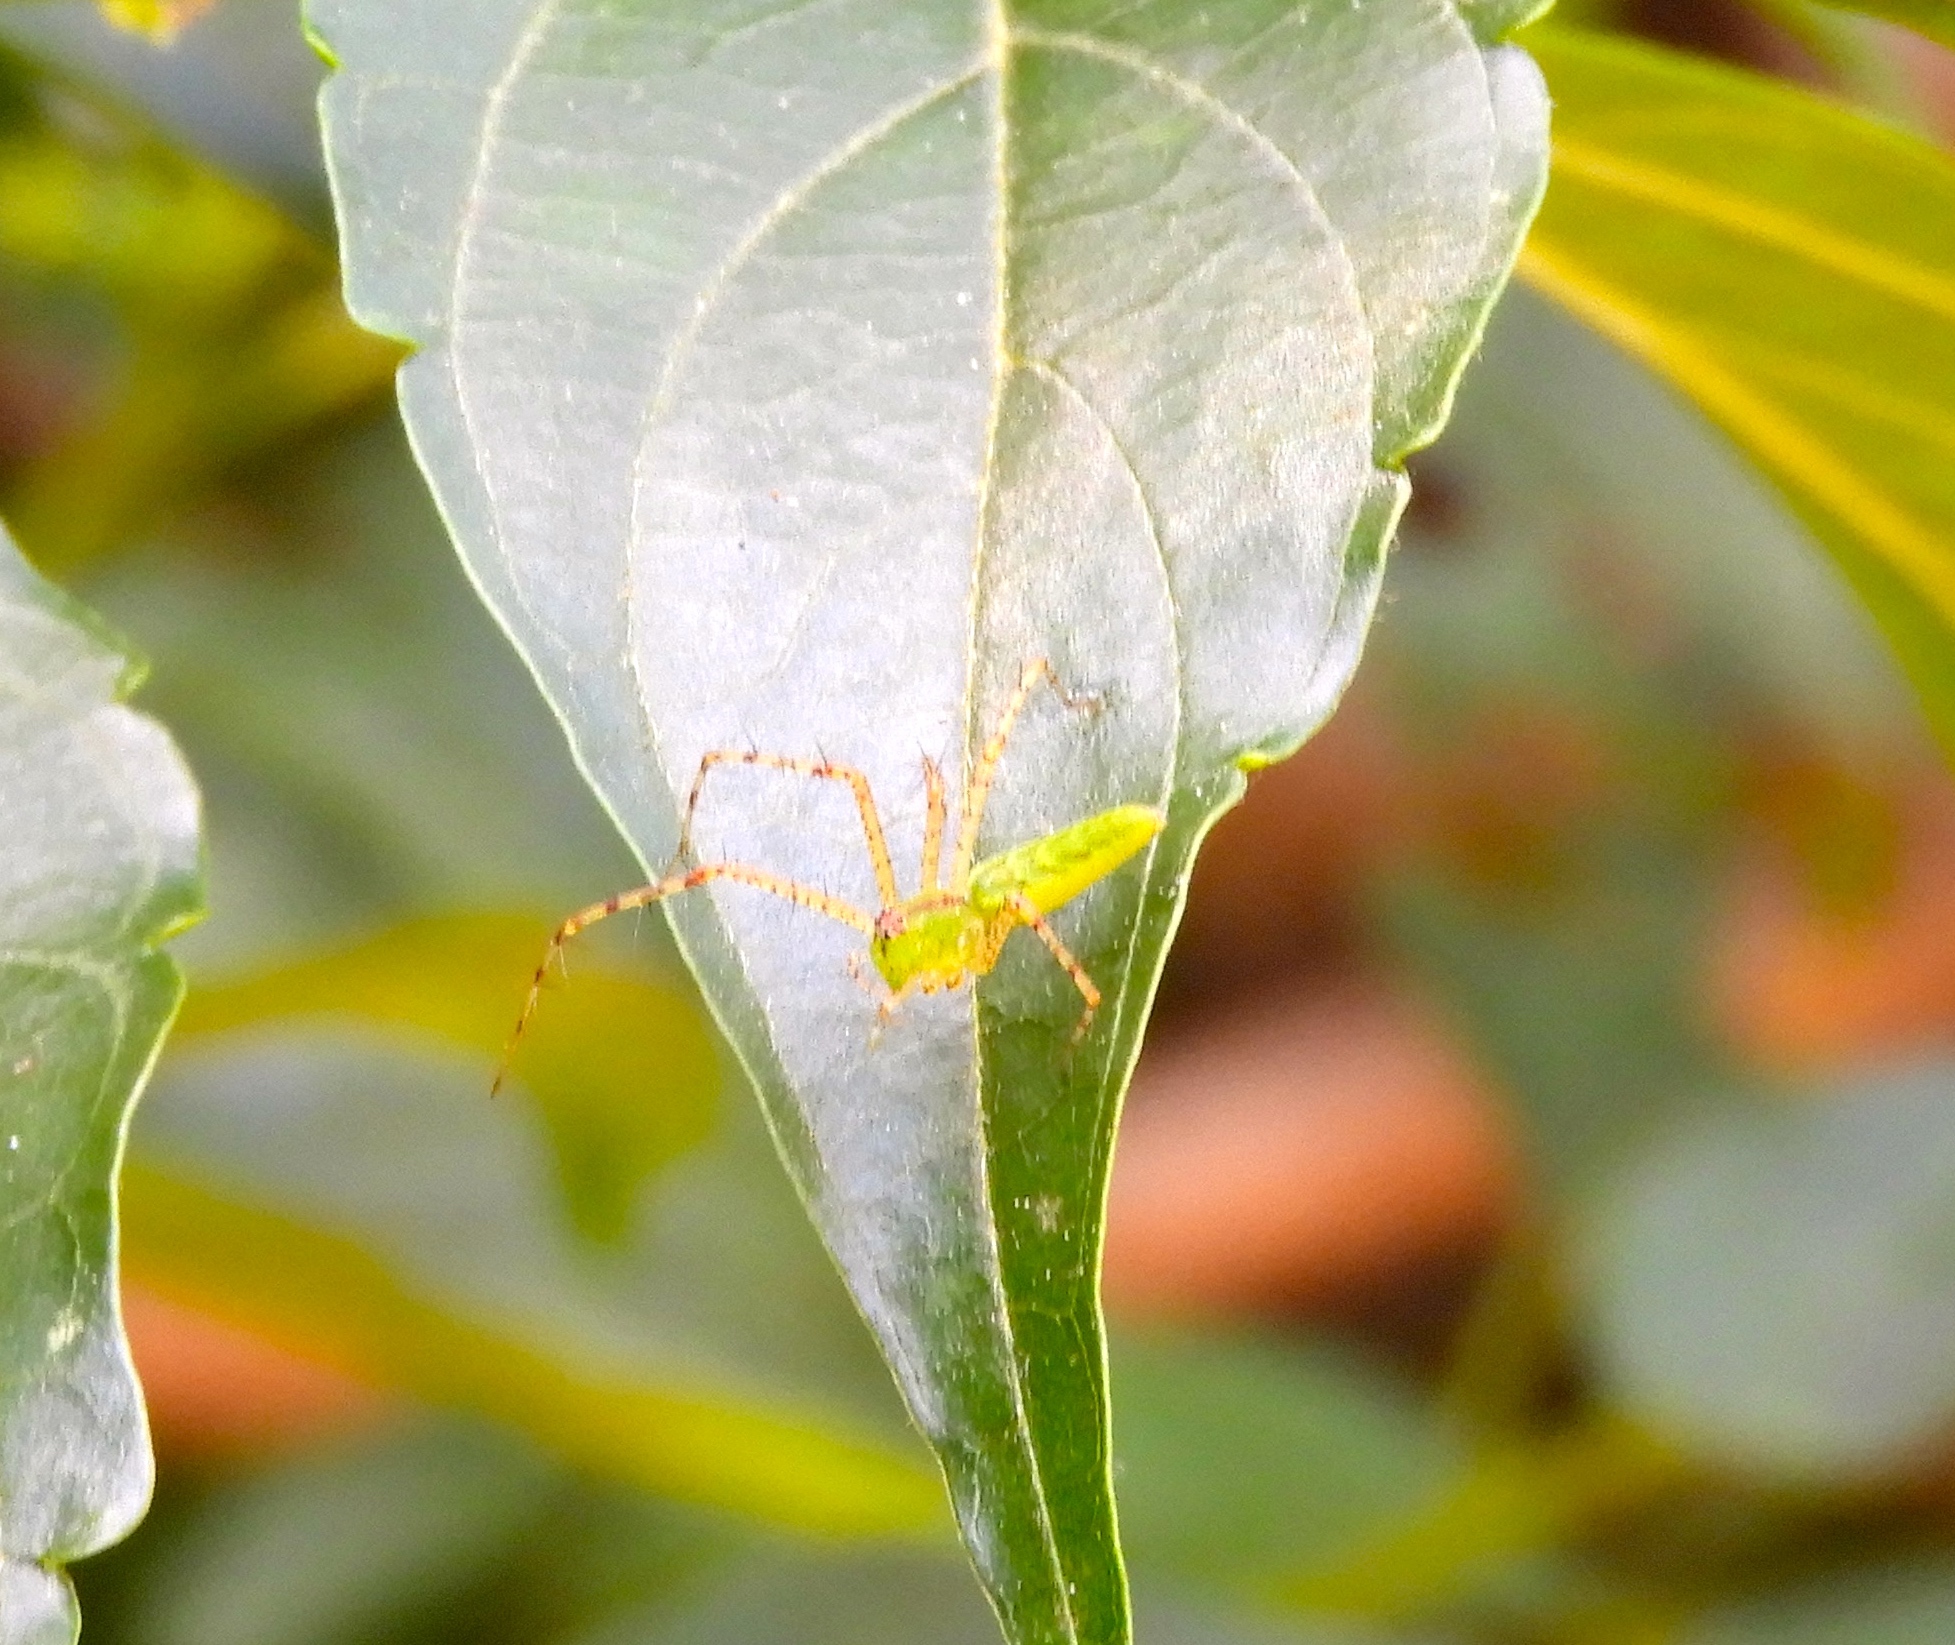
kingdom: Animalia
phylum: Arthropoda
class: Arachnida
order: Araneae
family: Oxyopidae
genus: Peucetia
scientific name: Peucetia
